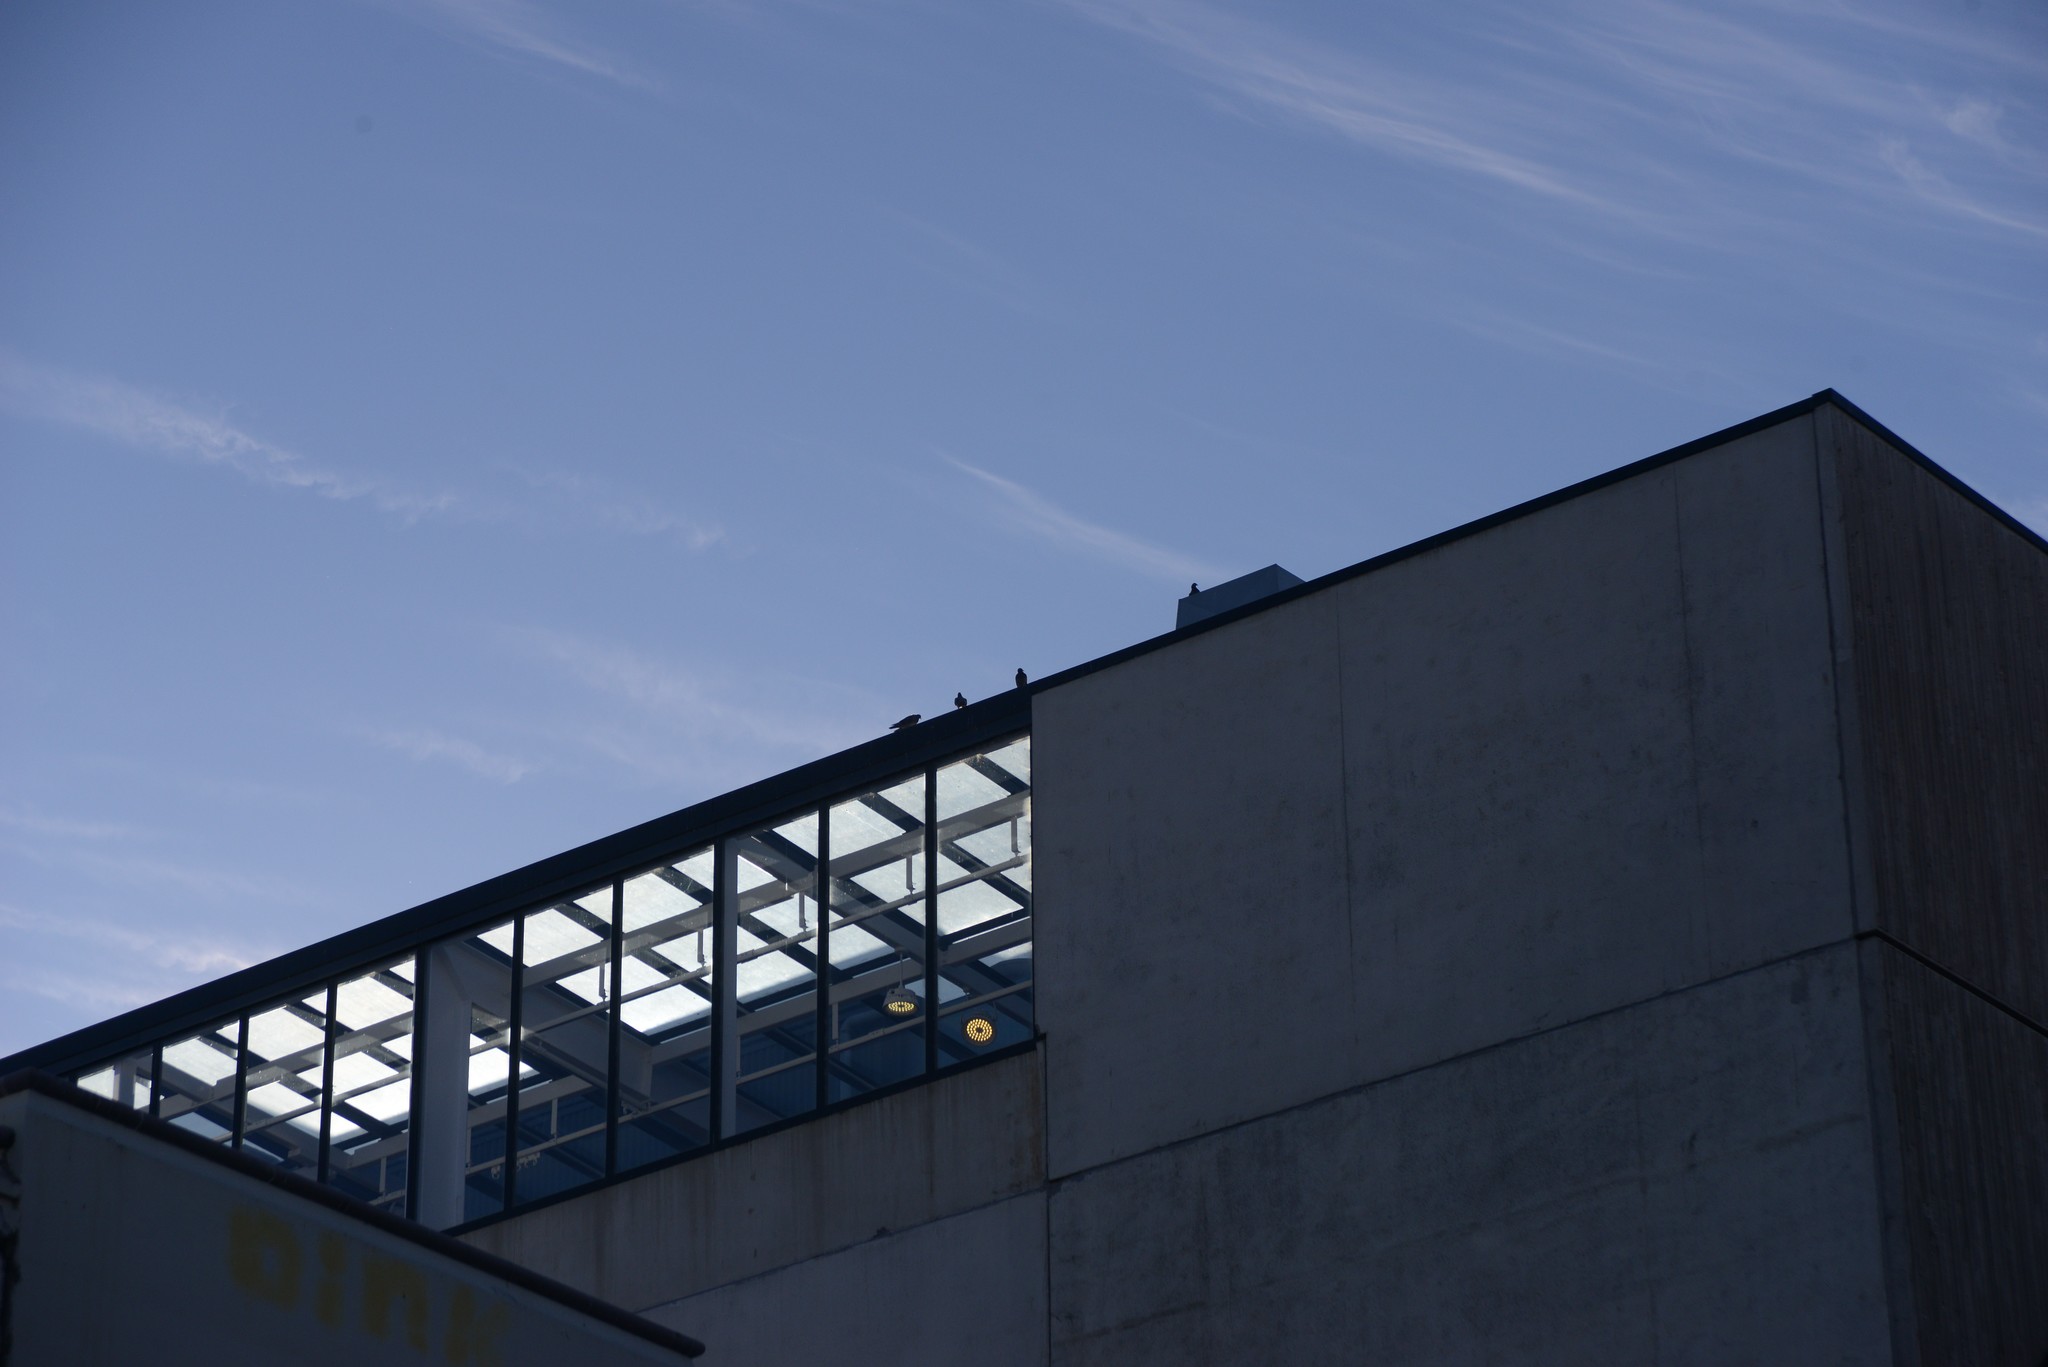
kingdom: Animalia
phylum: Chordata
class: Aves
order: Columbiformes
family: Columbidae
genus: Columba
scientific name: Columba livia
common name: Rock pigeon
